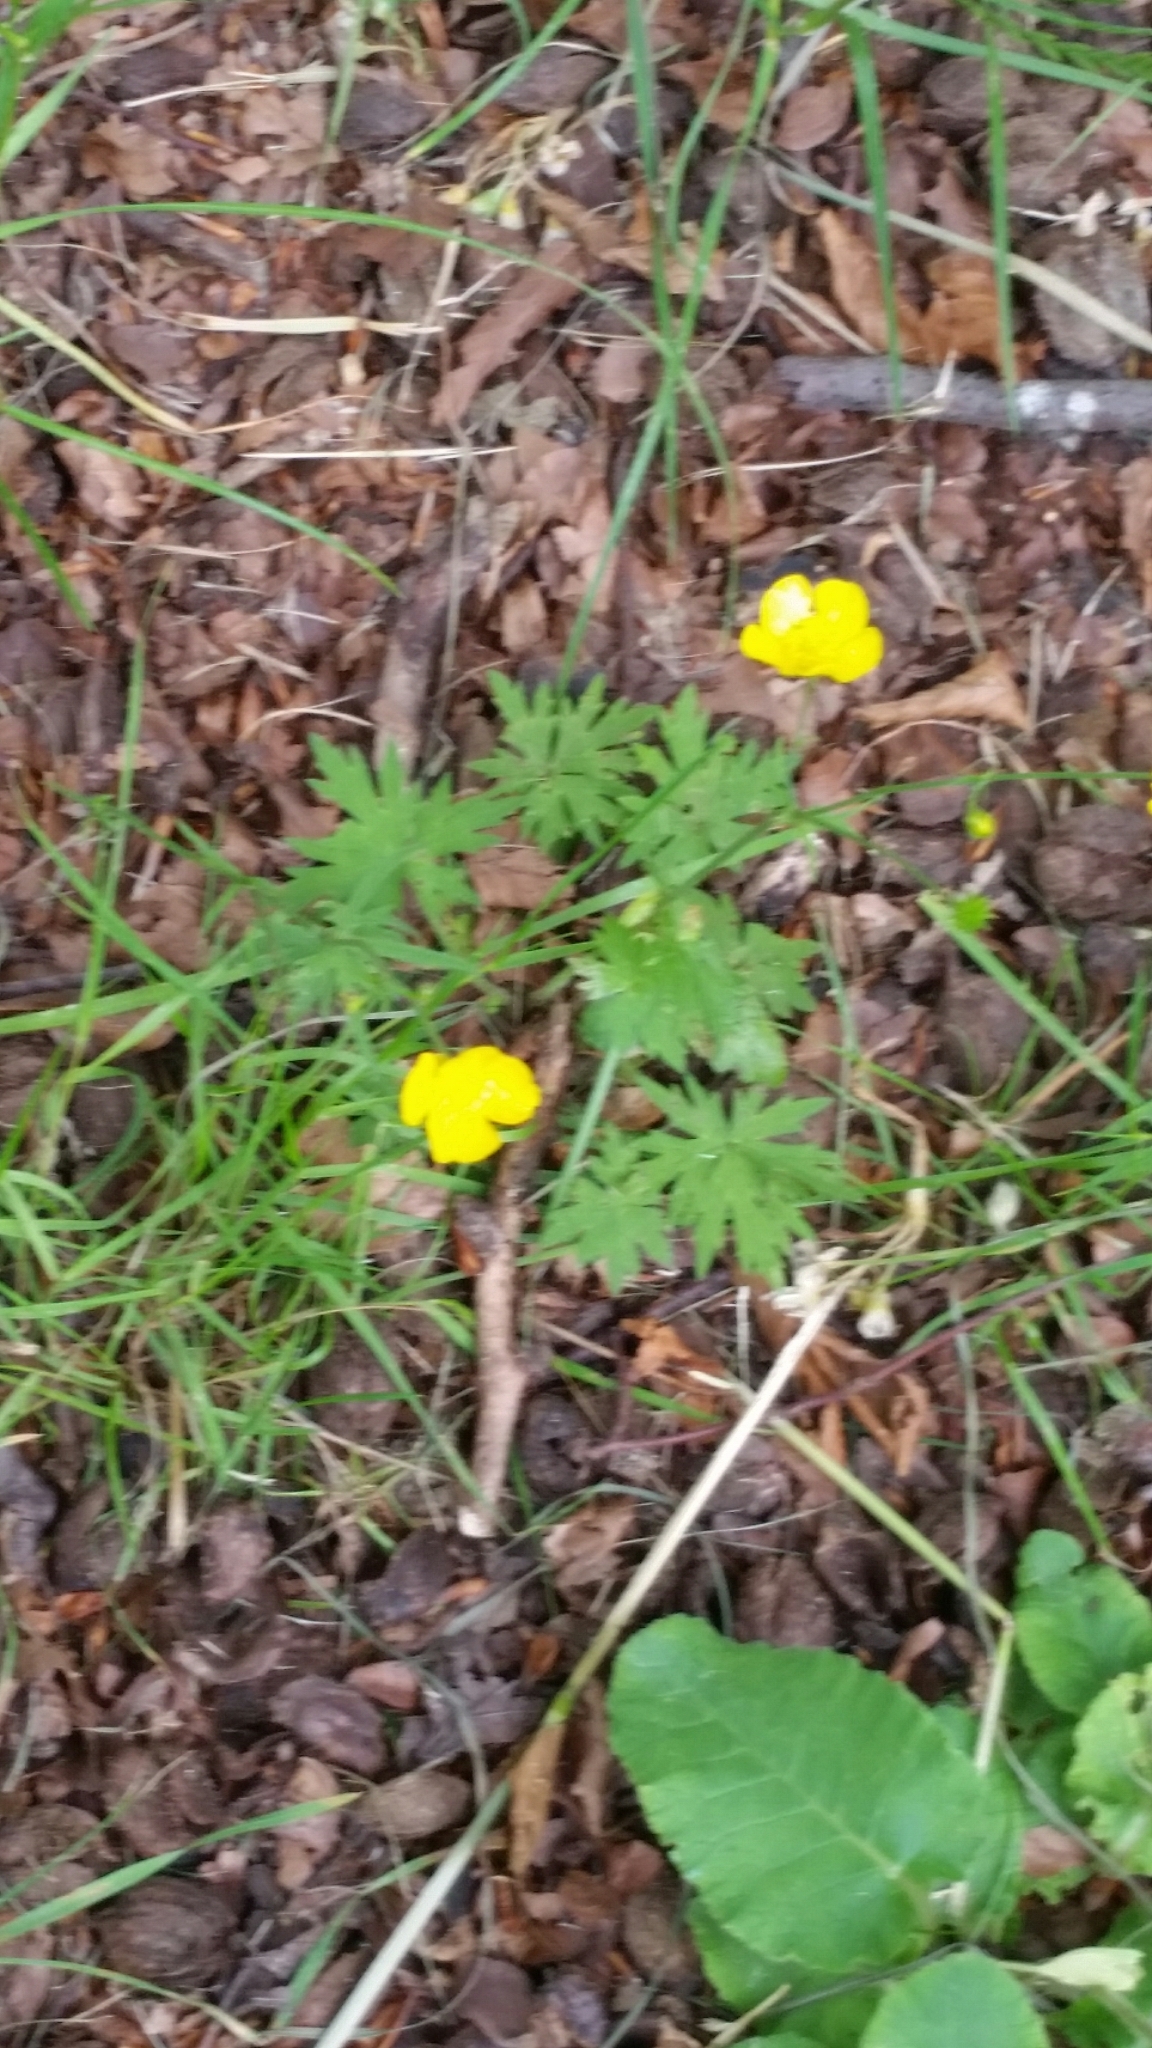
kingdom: Plantae
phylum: Tracheophyta
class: Magnoliopsida
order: Ranunculales
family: Ranunculaceae
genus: Ranunculus
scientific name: Ranunculus acris
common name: Meadow buttercup
